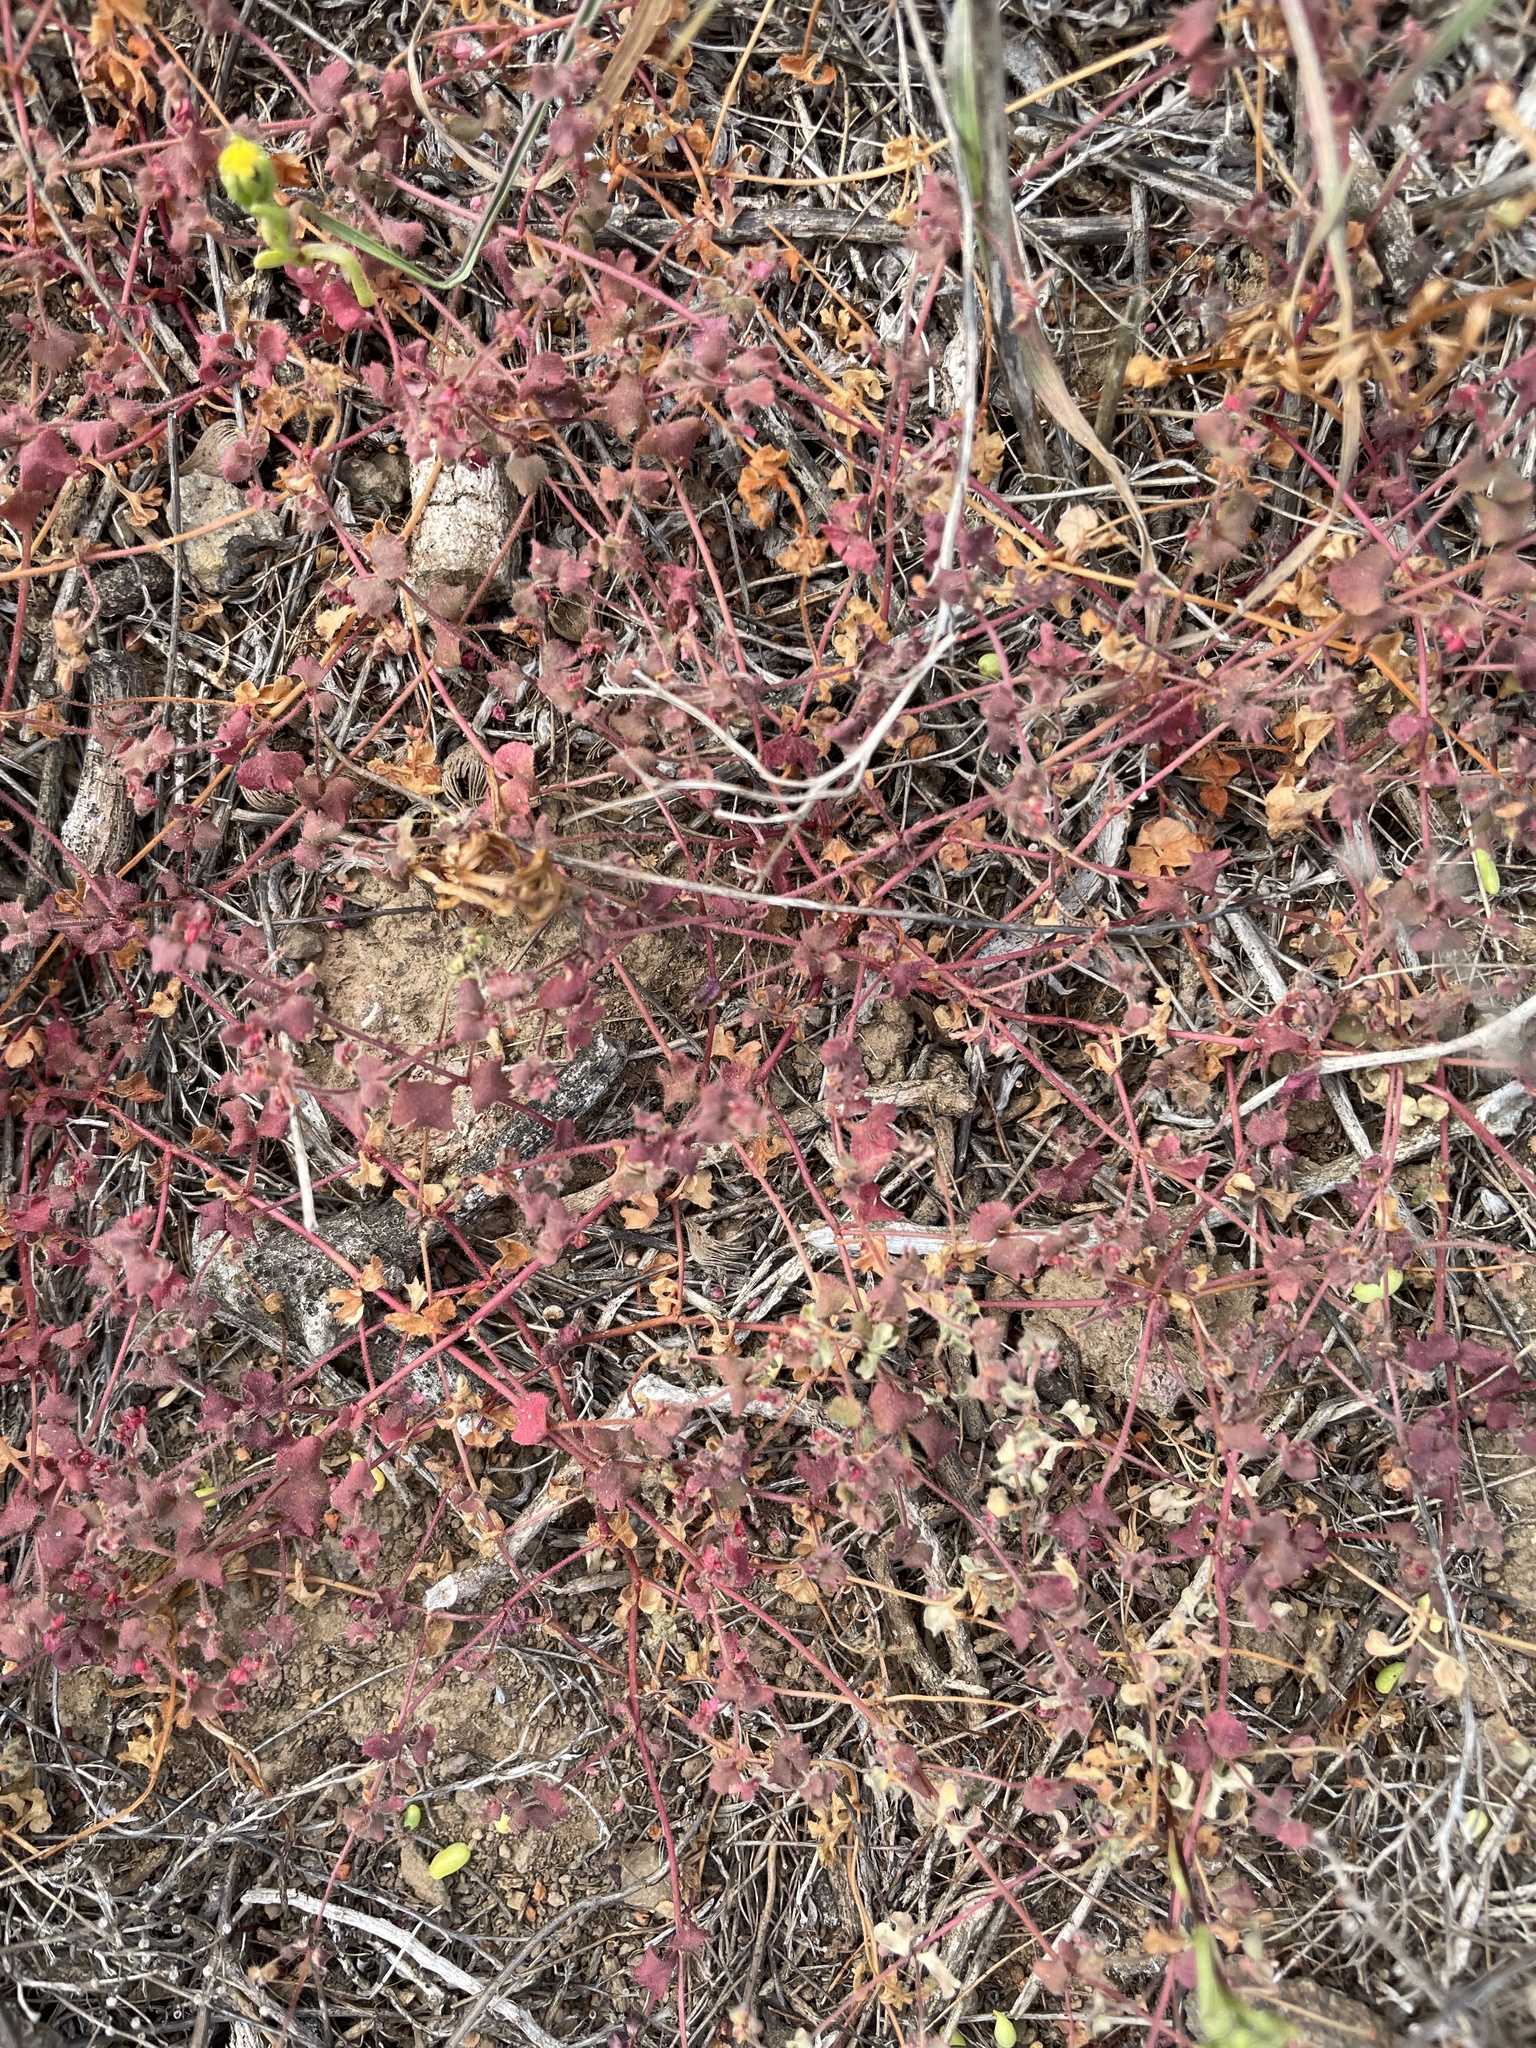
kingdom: Plantae
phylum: Tracheophyta
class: Magnoliopsida
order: Caryophyllales
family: Polygonaceae
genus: Pterostegia
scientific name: Pterostegia drymarioides
